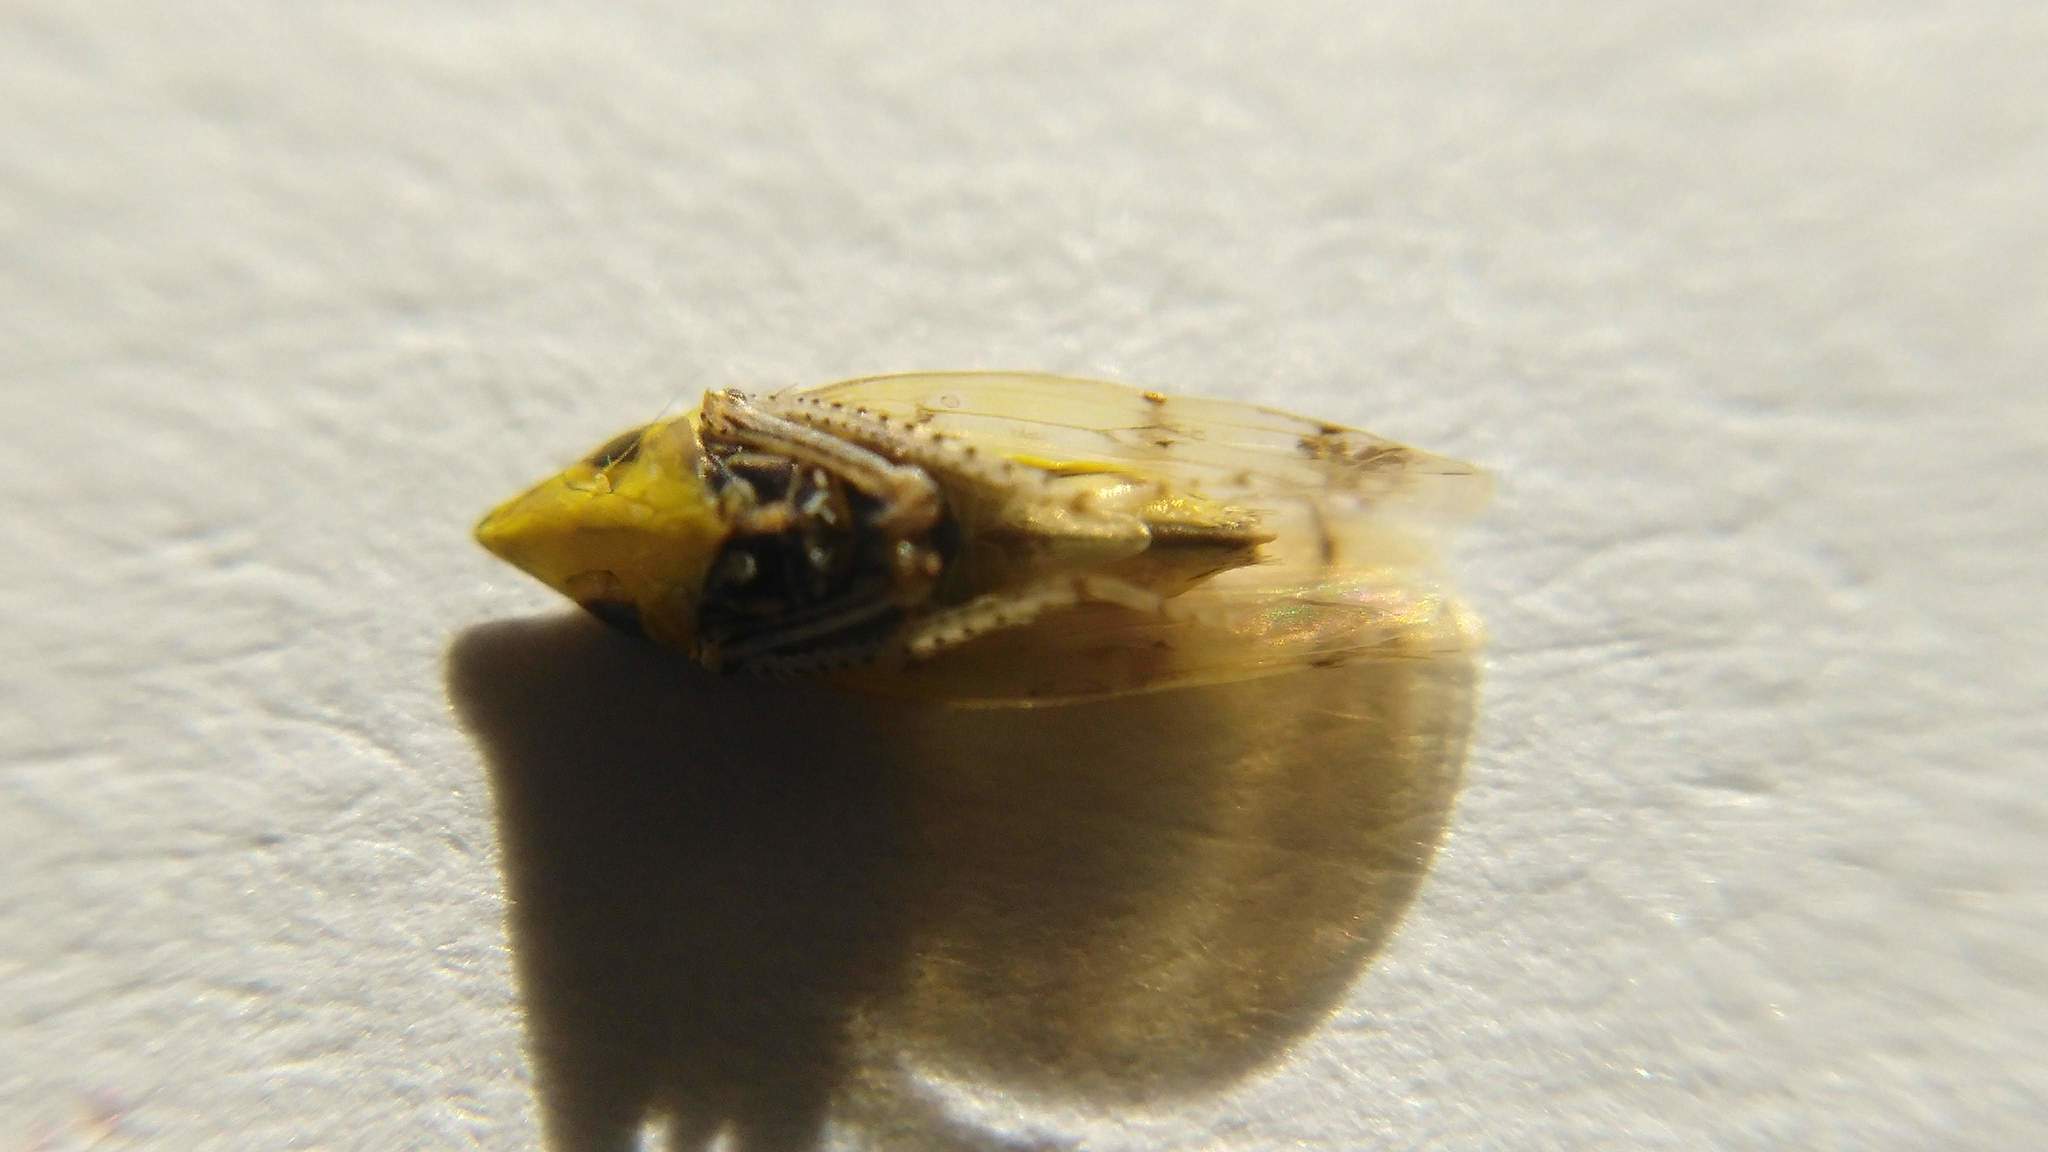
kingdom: Animalia
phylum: Arthropoda
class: Insecta
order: Hemiptera
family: Cicadellidae
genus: Japananus
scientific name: Japananus hyalinus
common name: The japanese maple leafhopper
